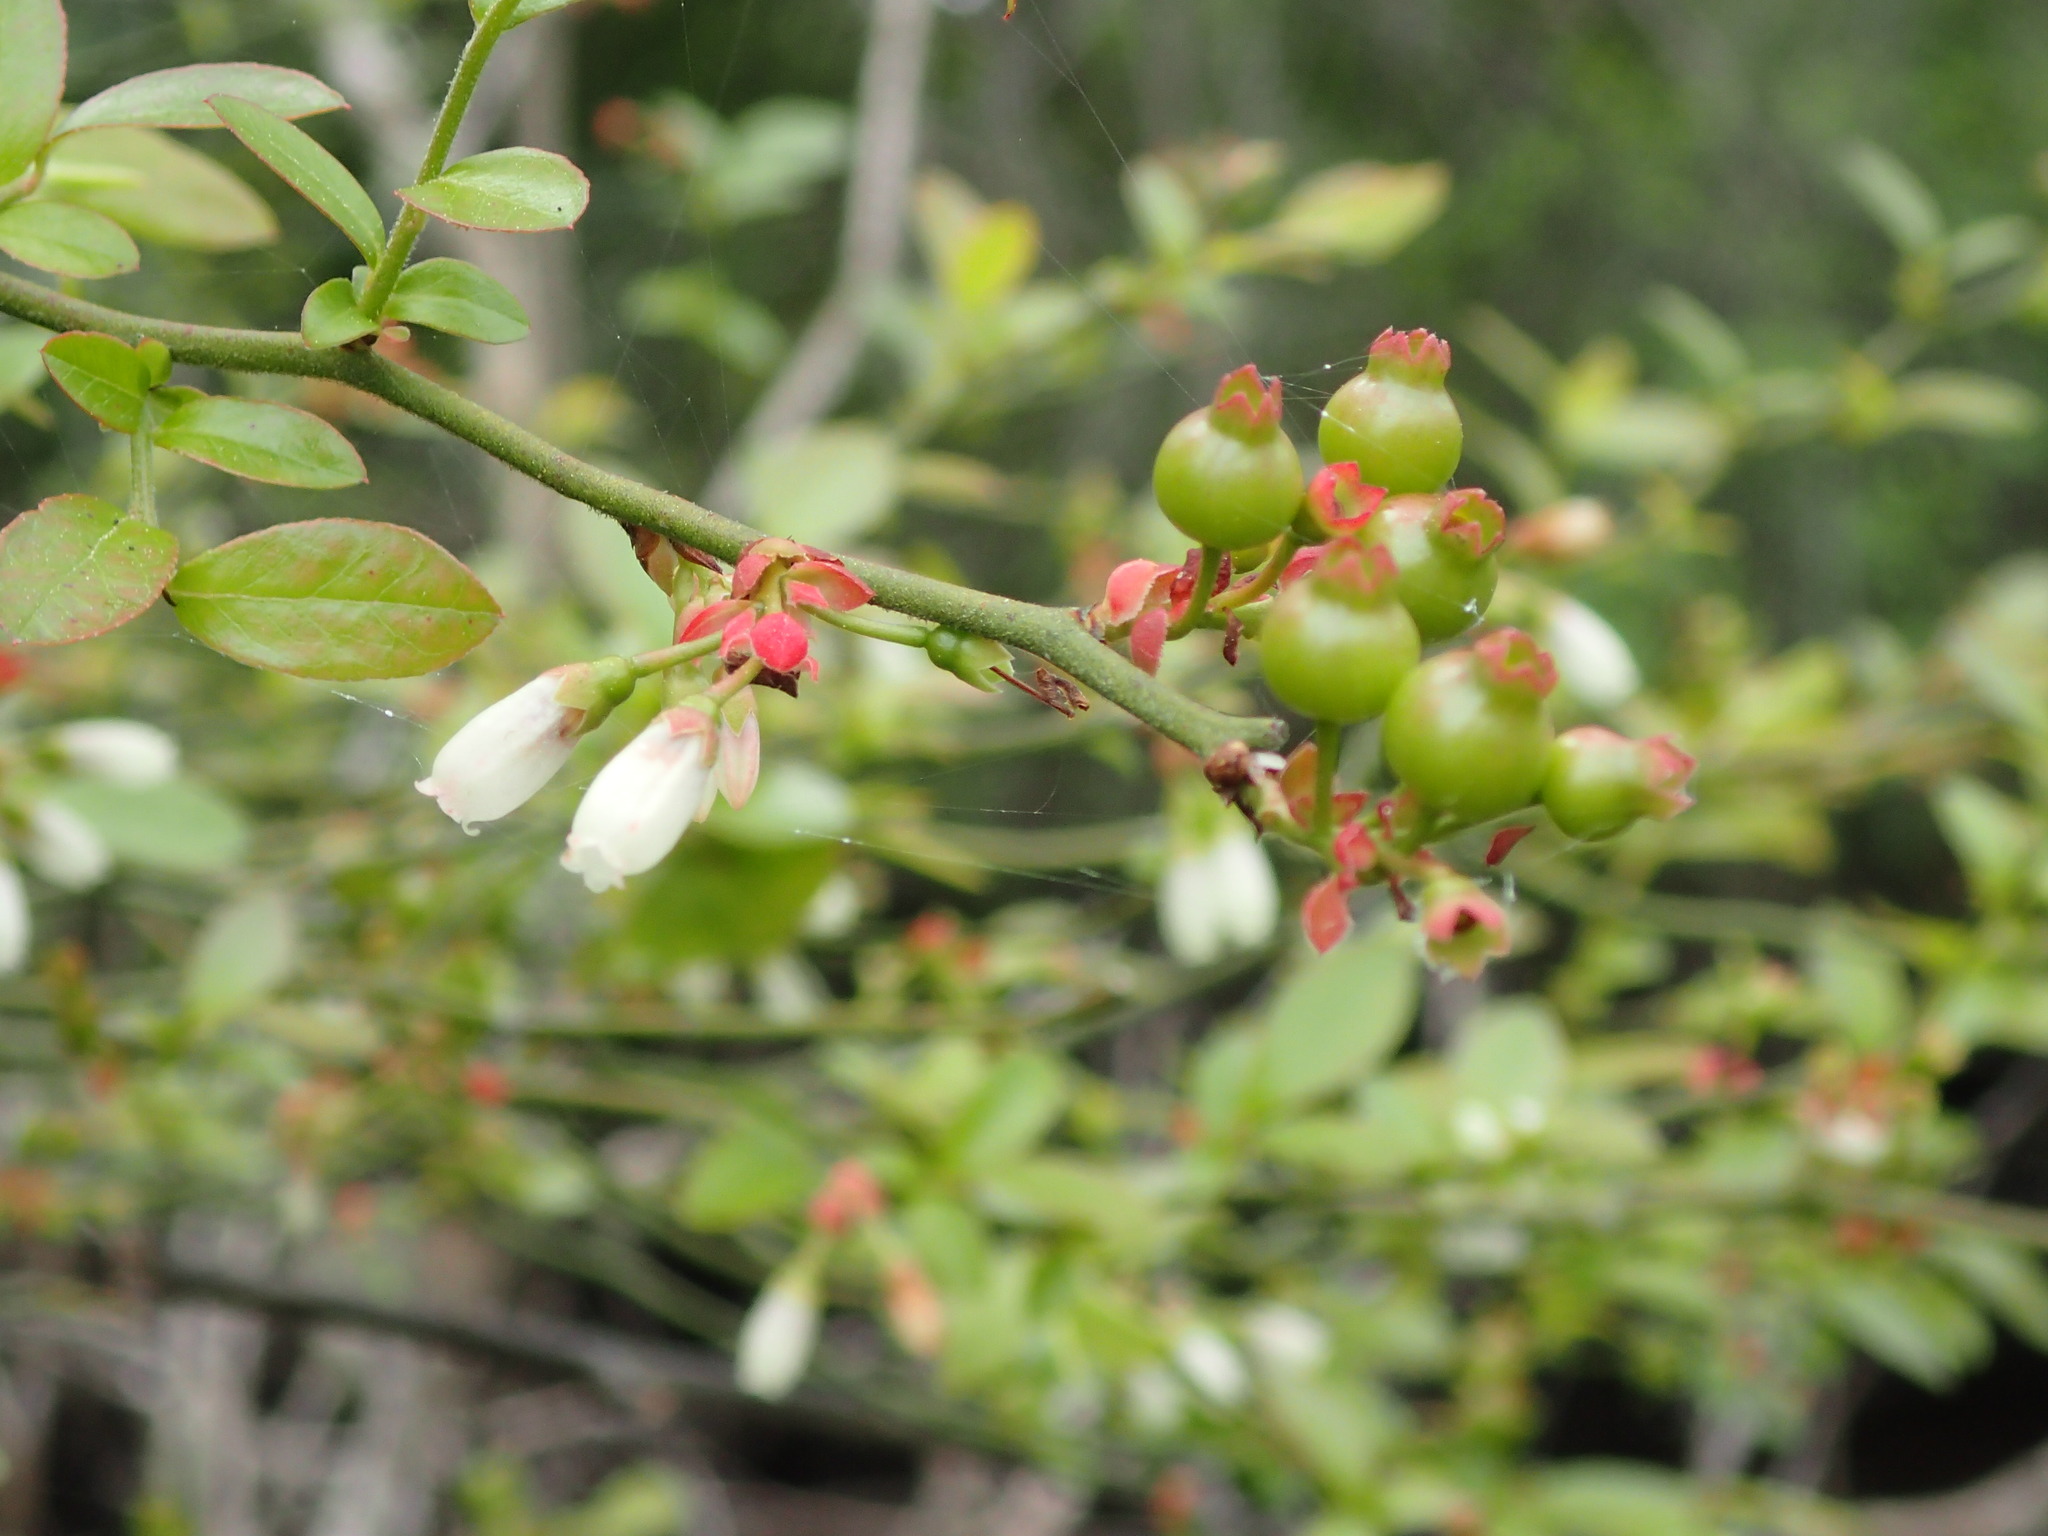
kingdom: Plantae
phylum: Tracheophyta
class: Magnoliopsida
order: Ericales
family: Ericaceae
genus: Vaccinium
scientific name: Vaccinium corymbosum
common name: Blueberry
